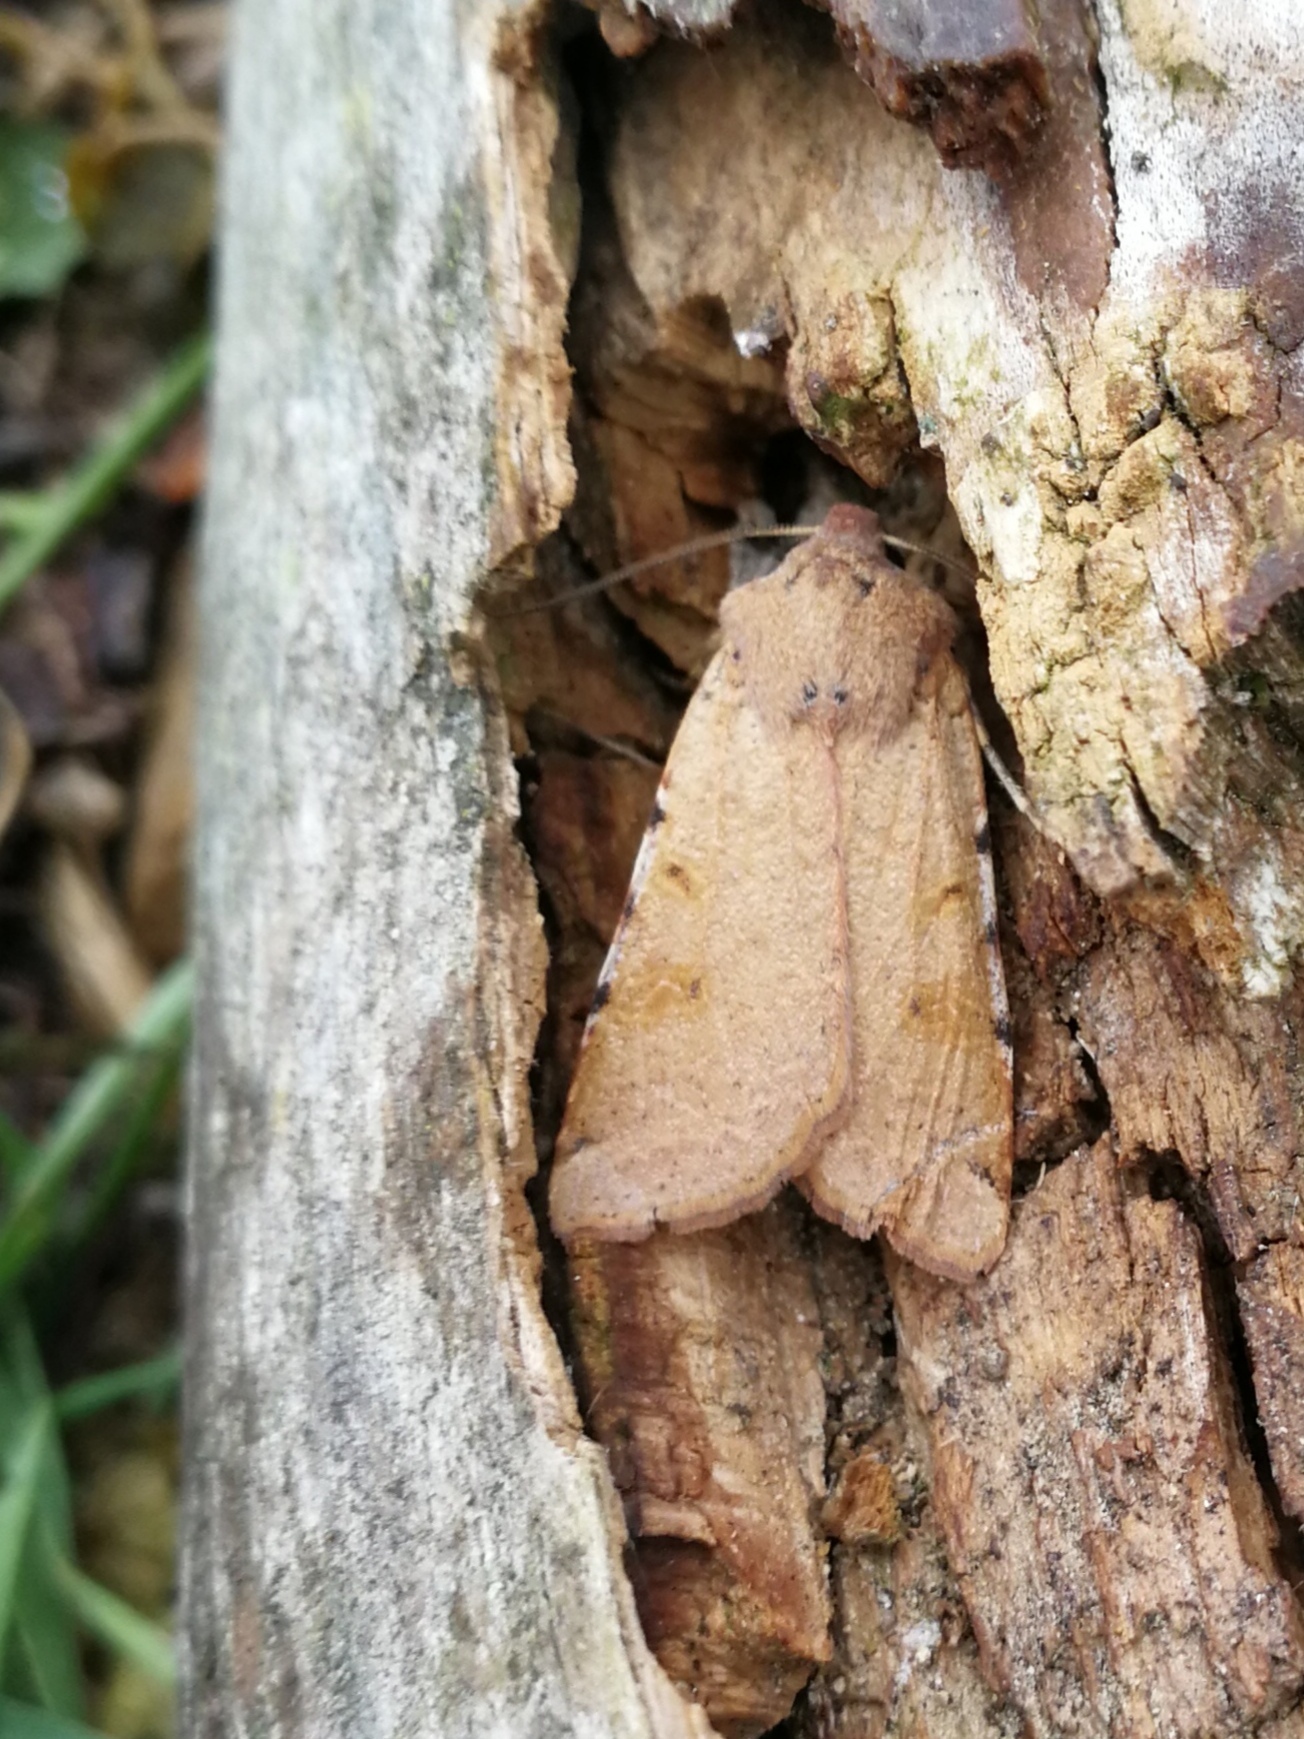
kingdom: Animalia
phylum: Arthropoda
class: Insecta
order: Lepidoptera
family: Noctuidae
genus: Agrochola
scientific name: Agrochola lychnidis
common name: Beaded chestnut
